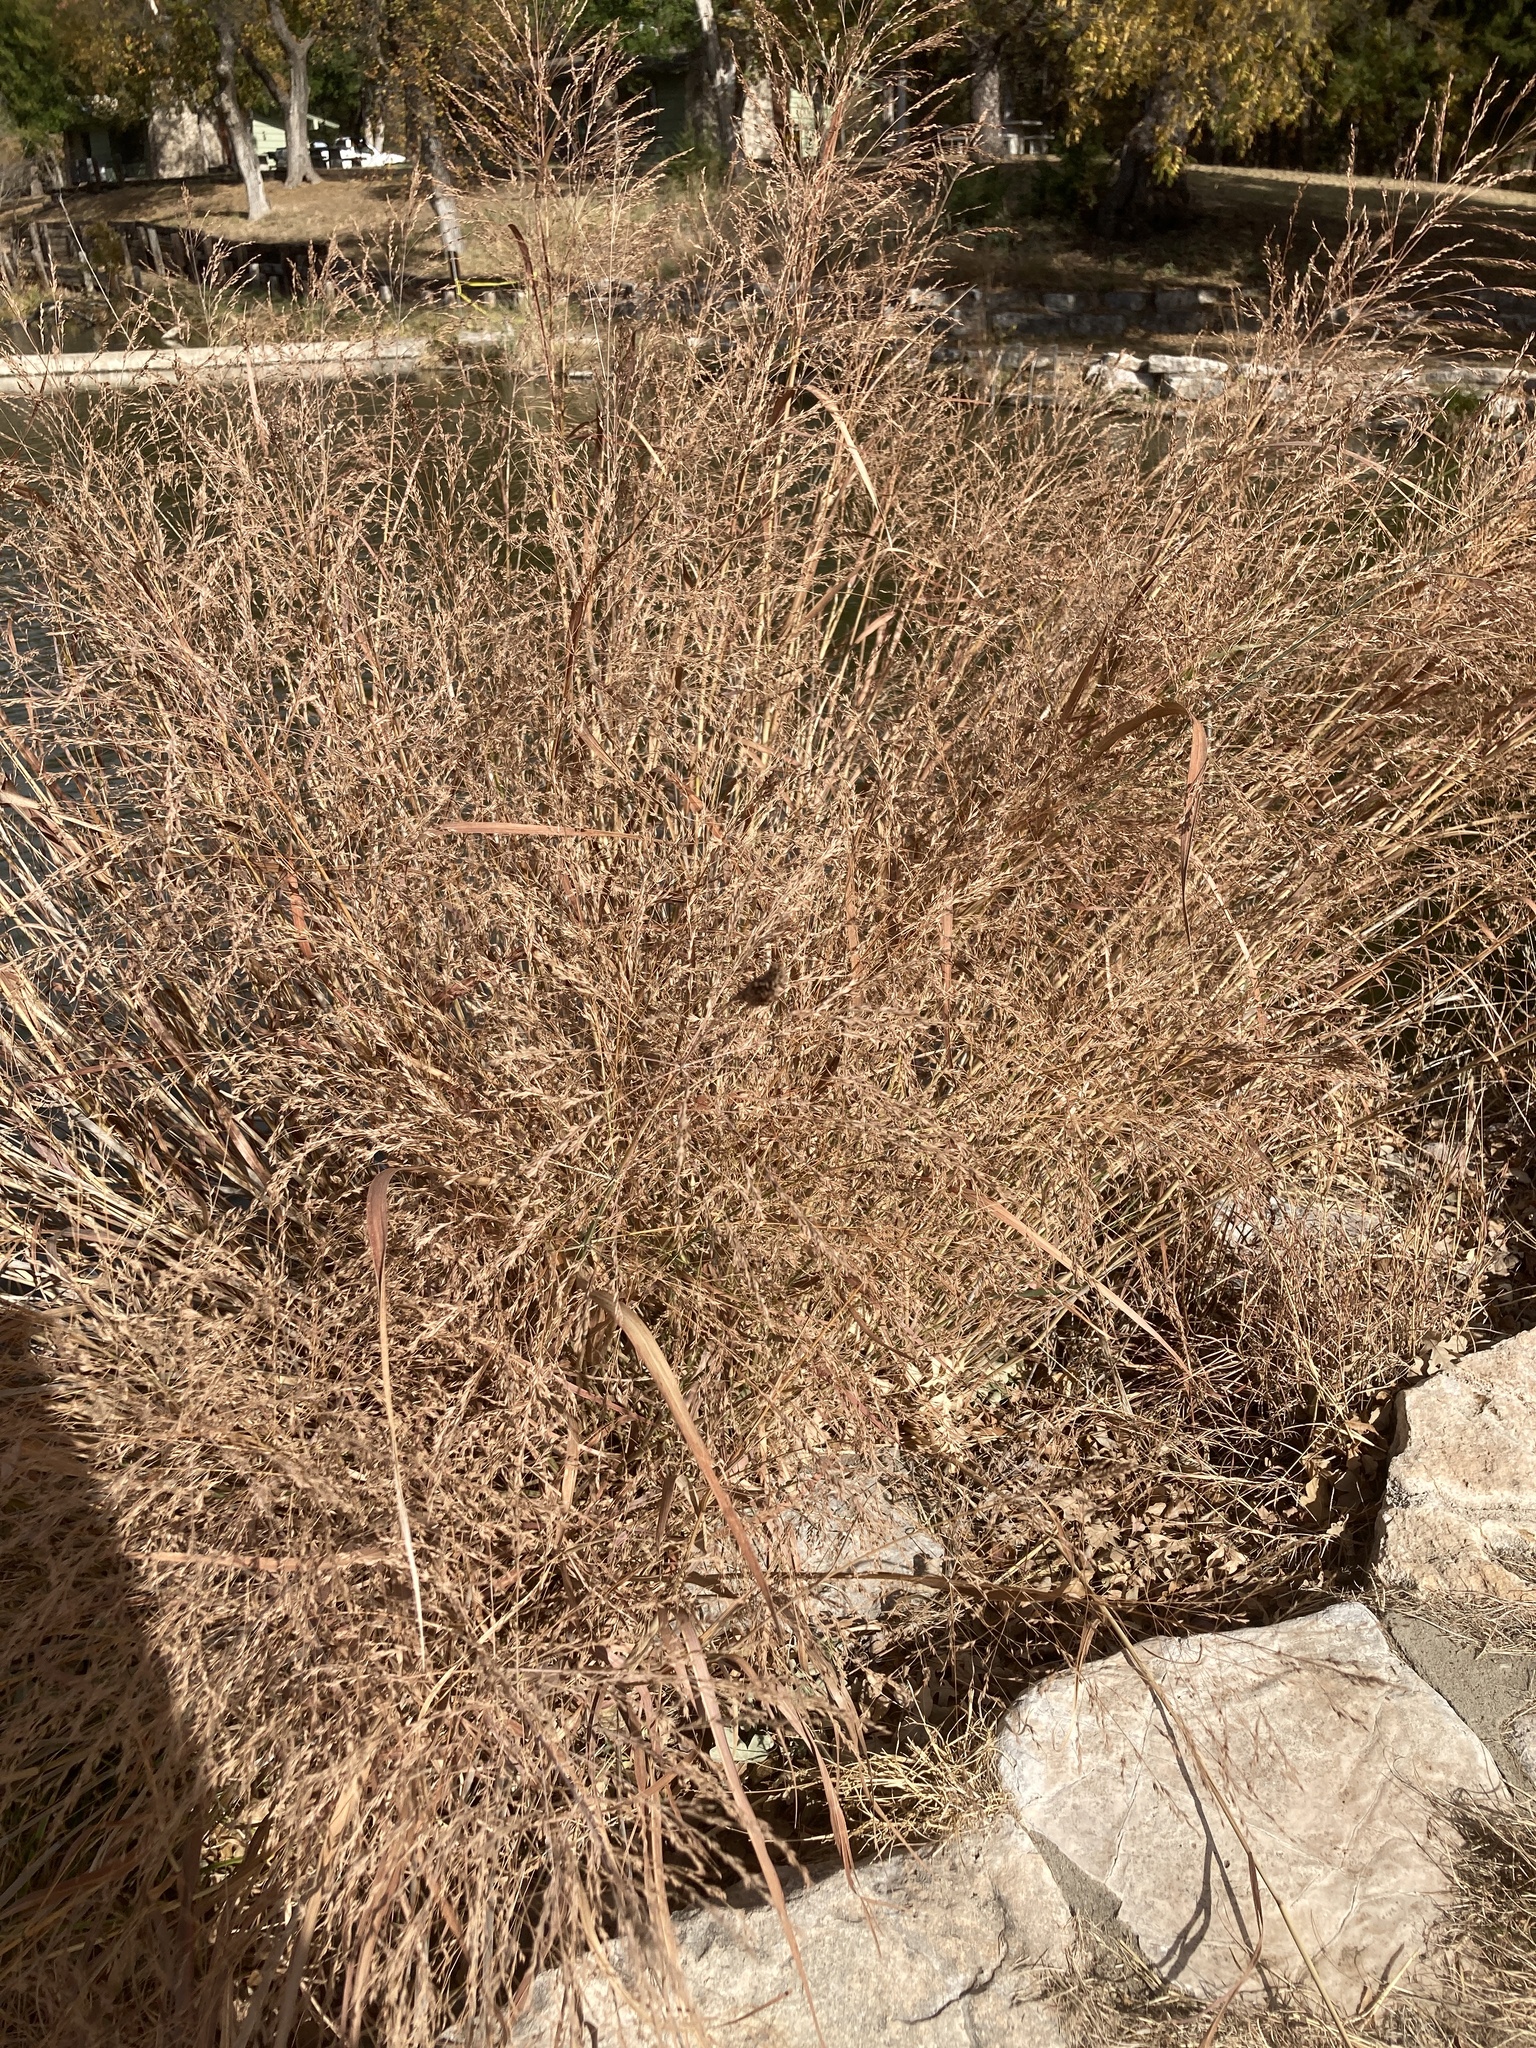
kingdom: Plantae
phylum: Tracheophyta
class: Liliopsida
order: Poales
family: Poaceae
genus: Panicum
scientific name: Panicum virgatum
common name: Switchgrass
